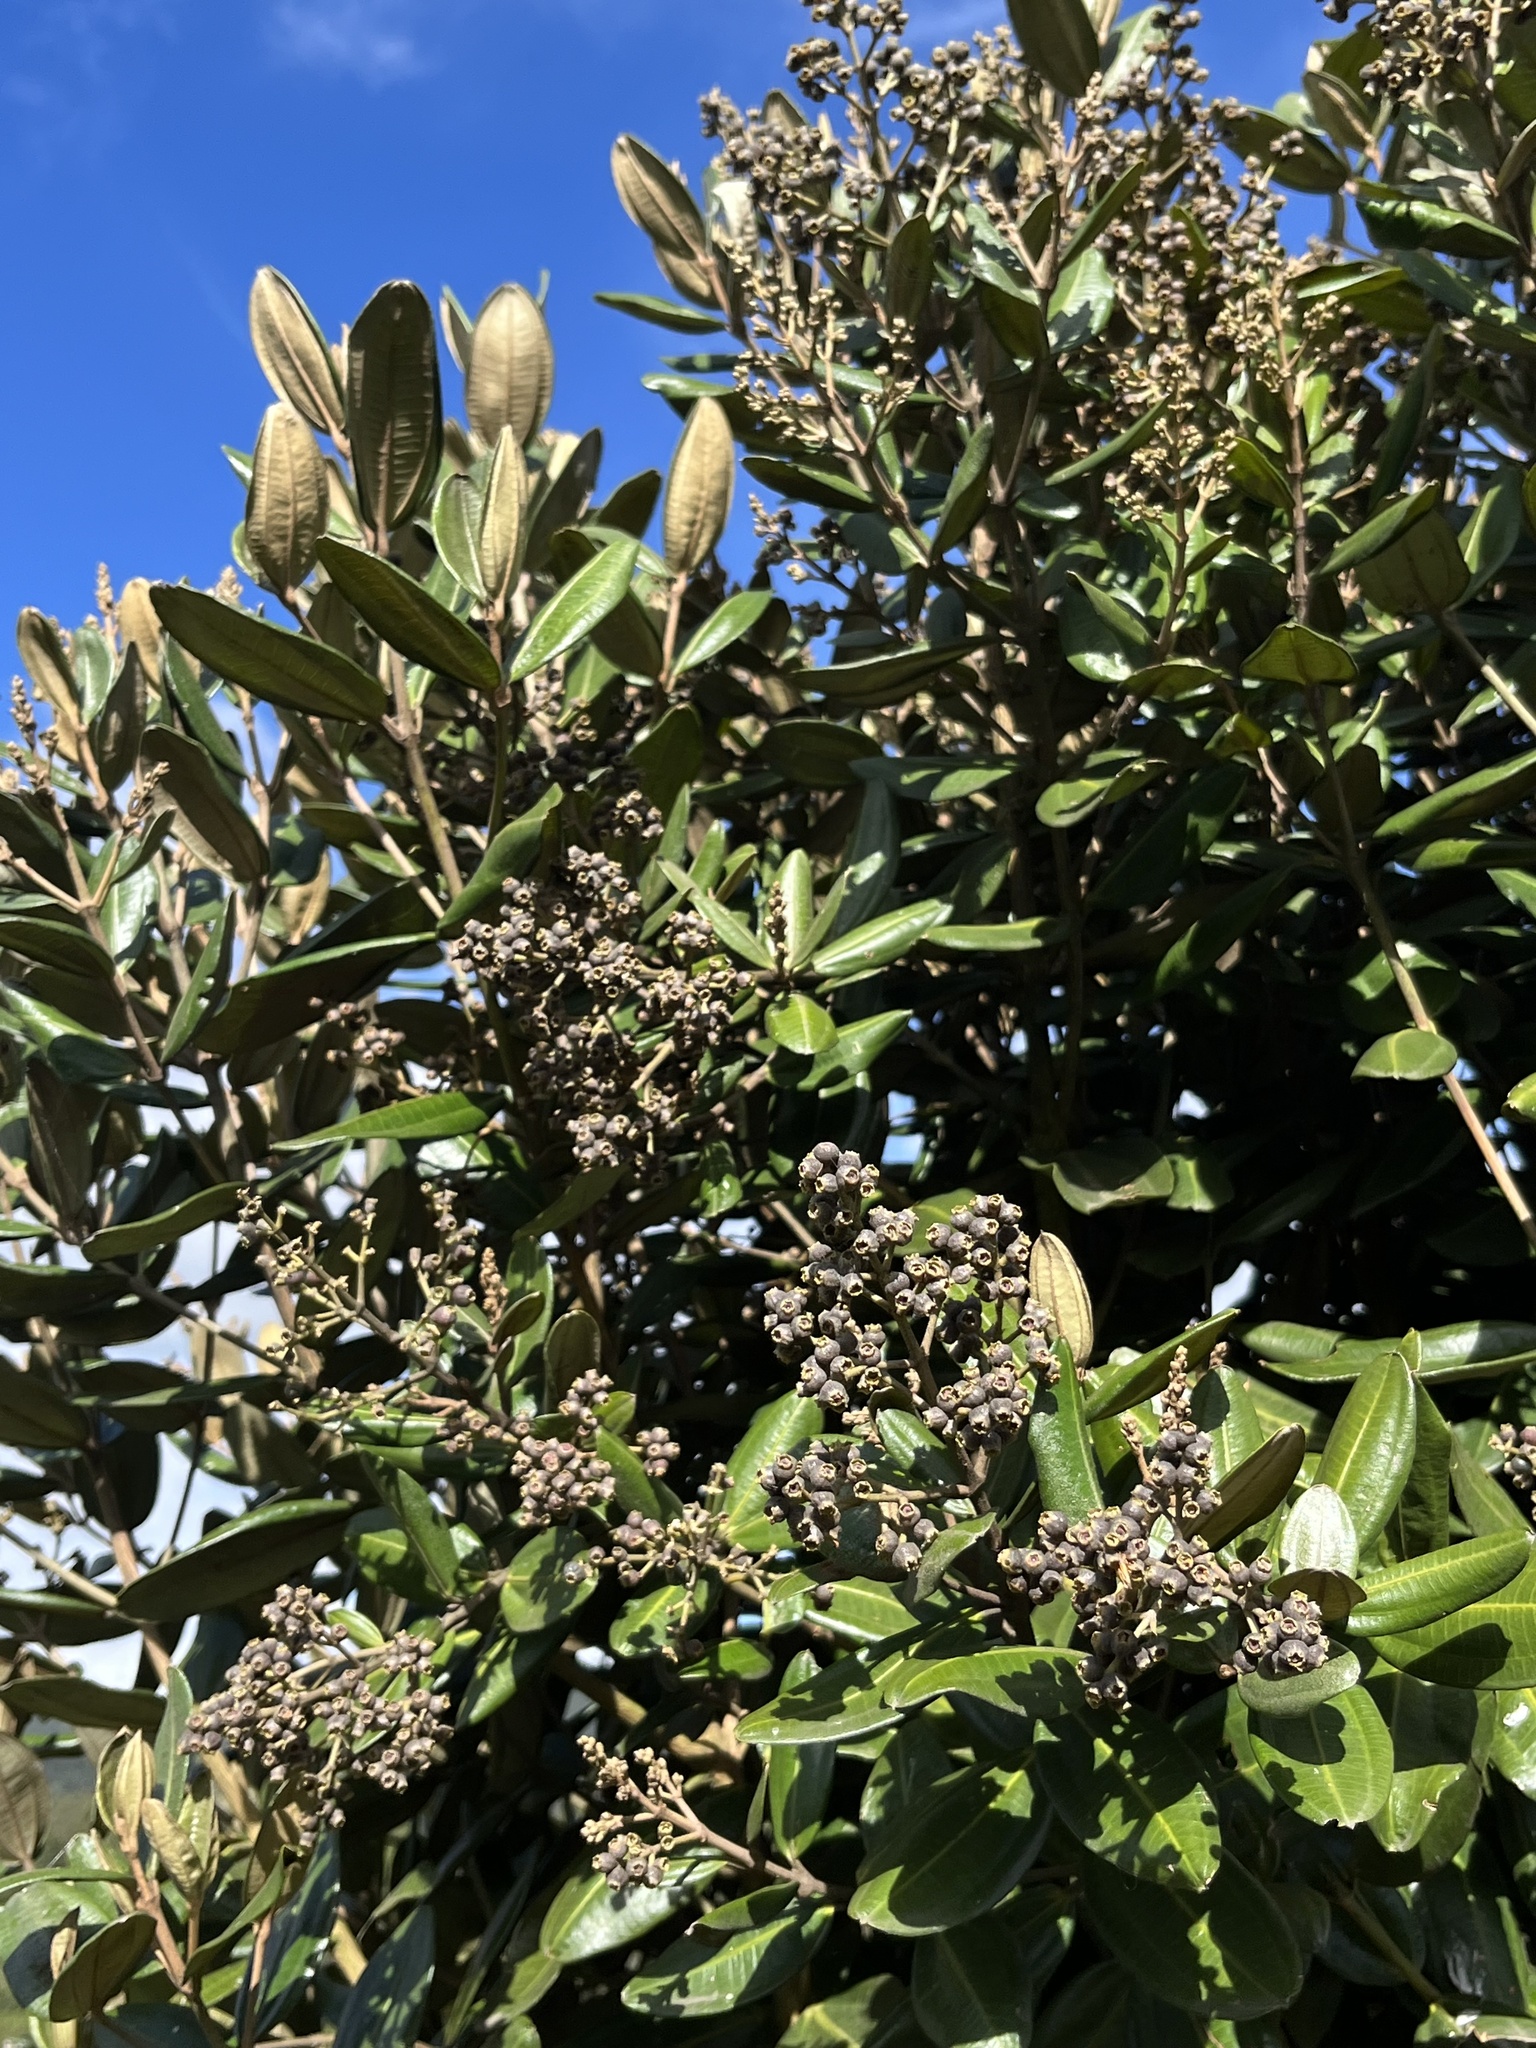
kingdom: Plantae
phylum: Tracheophyta
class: Magnoliopsida
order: Myrtales
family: Melastomataceae
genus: Miconia
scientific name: Miconia squamulosa
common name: Squamulose maya
